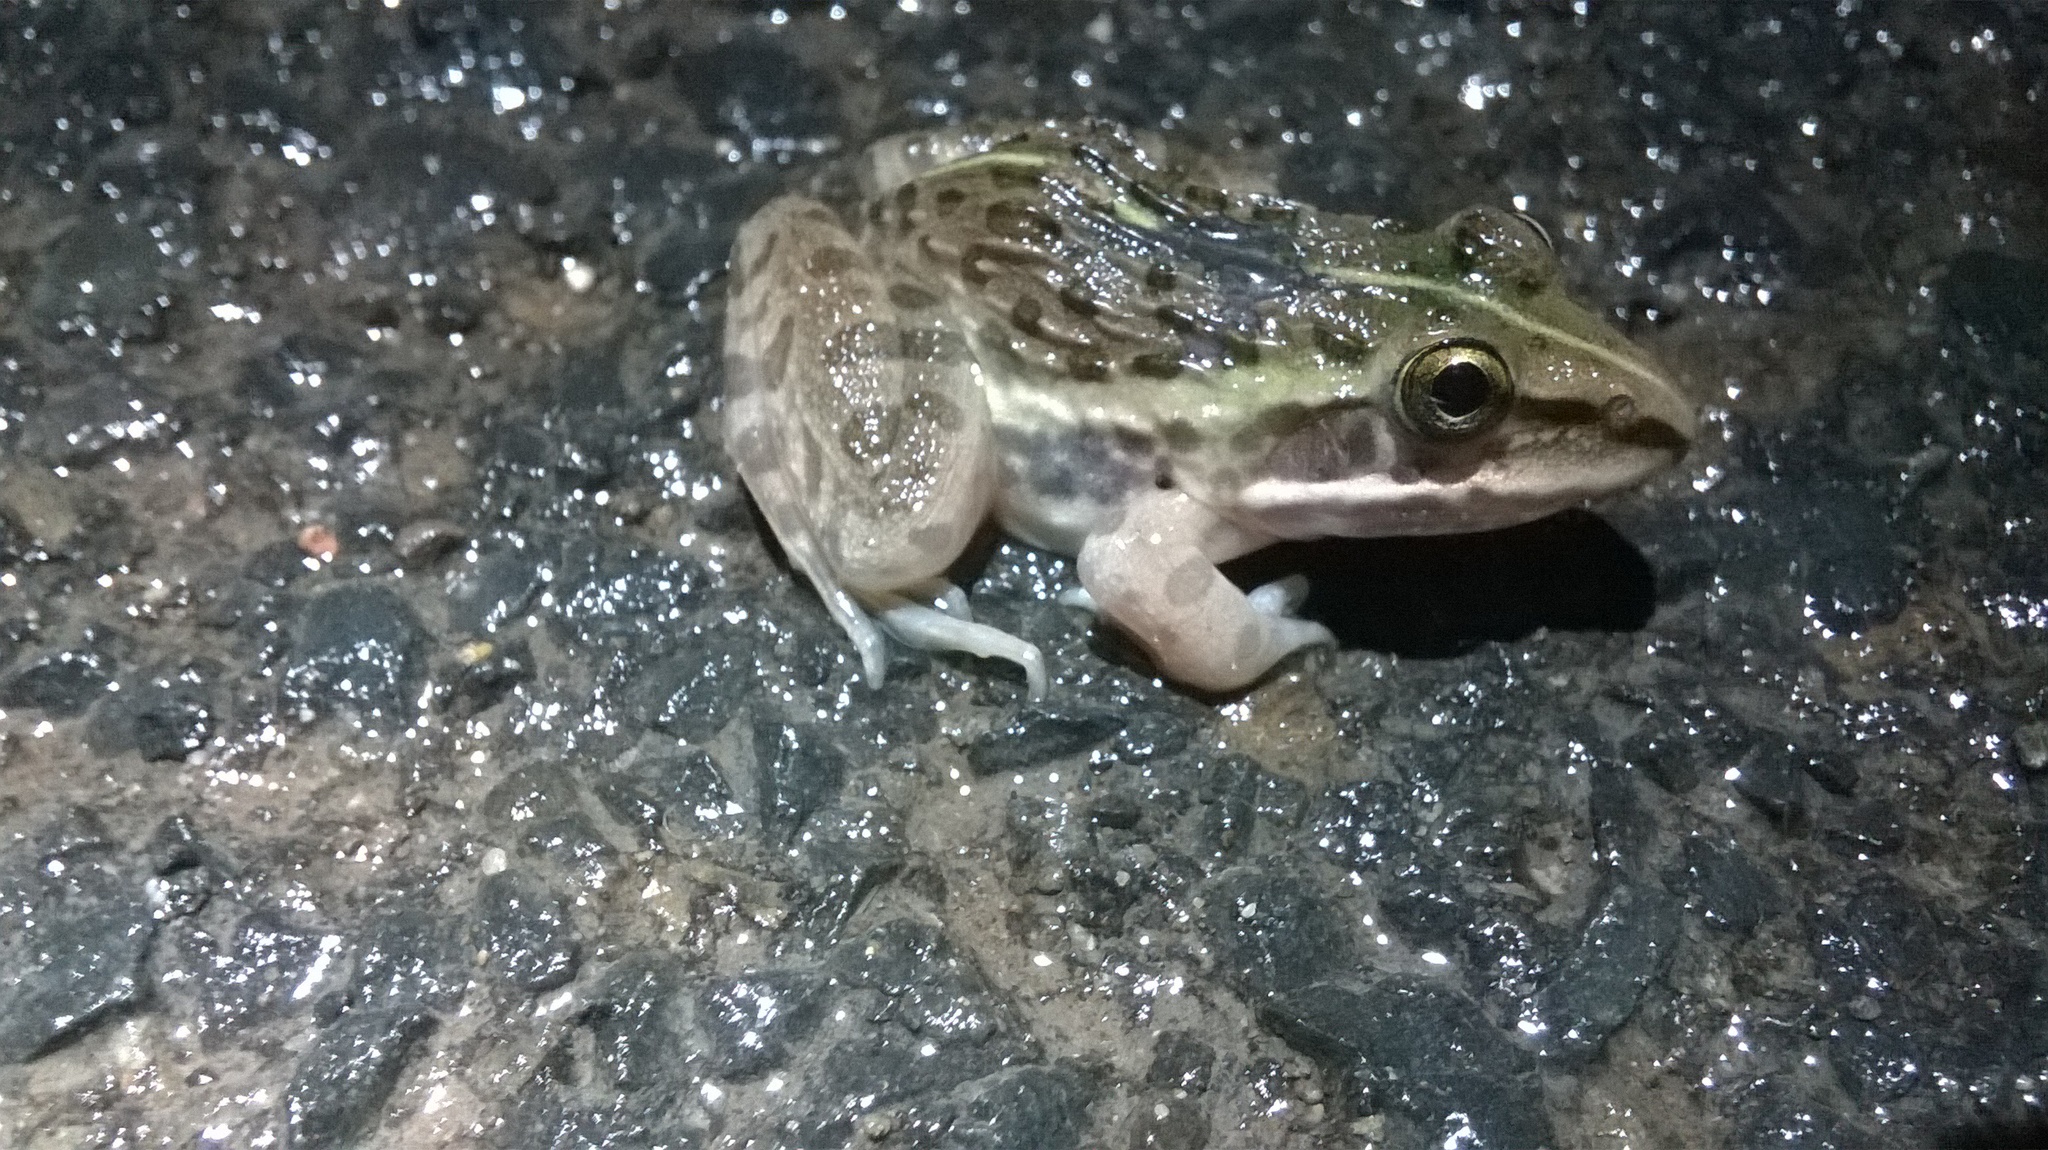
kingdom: Animalia
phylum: Chordata
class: Amphibia
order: Anura
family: Dicroglossidae
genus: Hoplobatrachus
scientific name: Hoplobatrachus tigerinus
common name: Indian bullfrog
